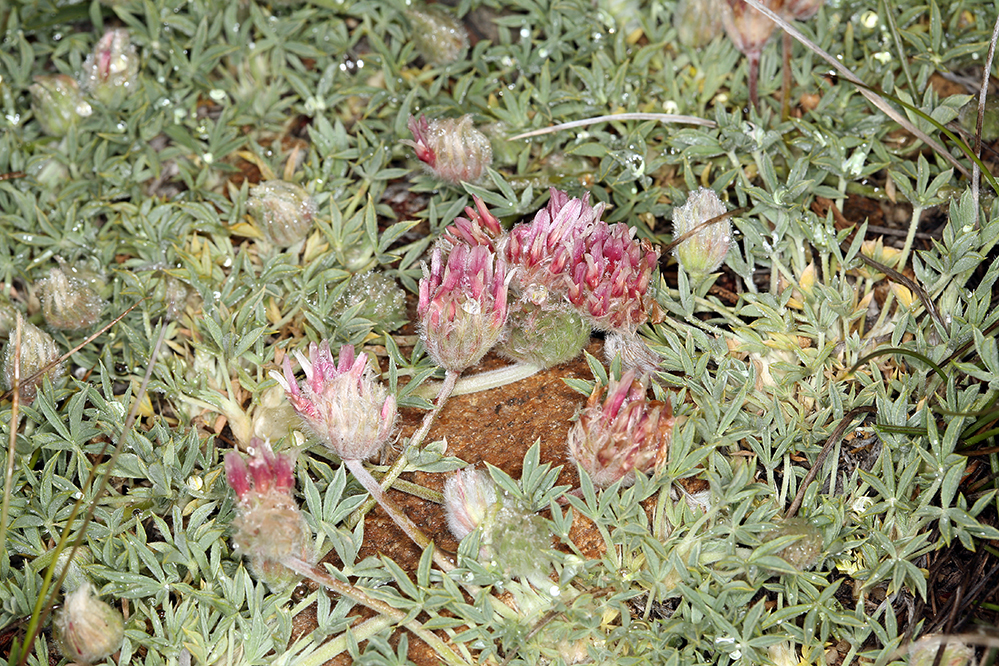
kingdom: Plantae
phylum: Tracheophyta
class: Magnoliopsida
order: Fabales
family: Fabaceae
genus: Trifolium
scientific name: Trifolium andersonii
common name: Anderson's clover
